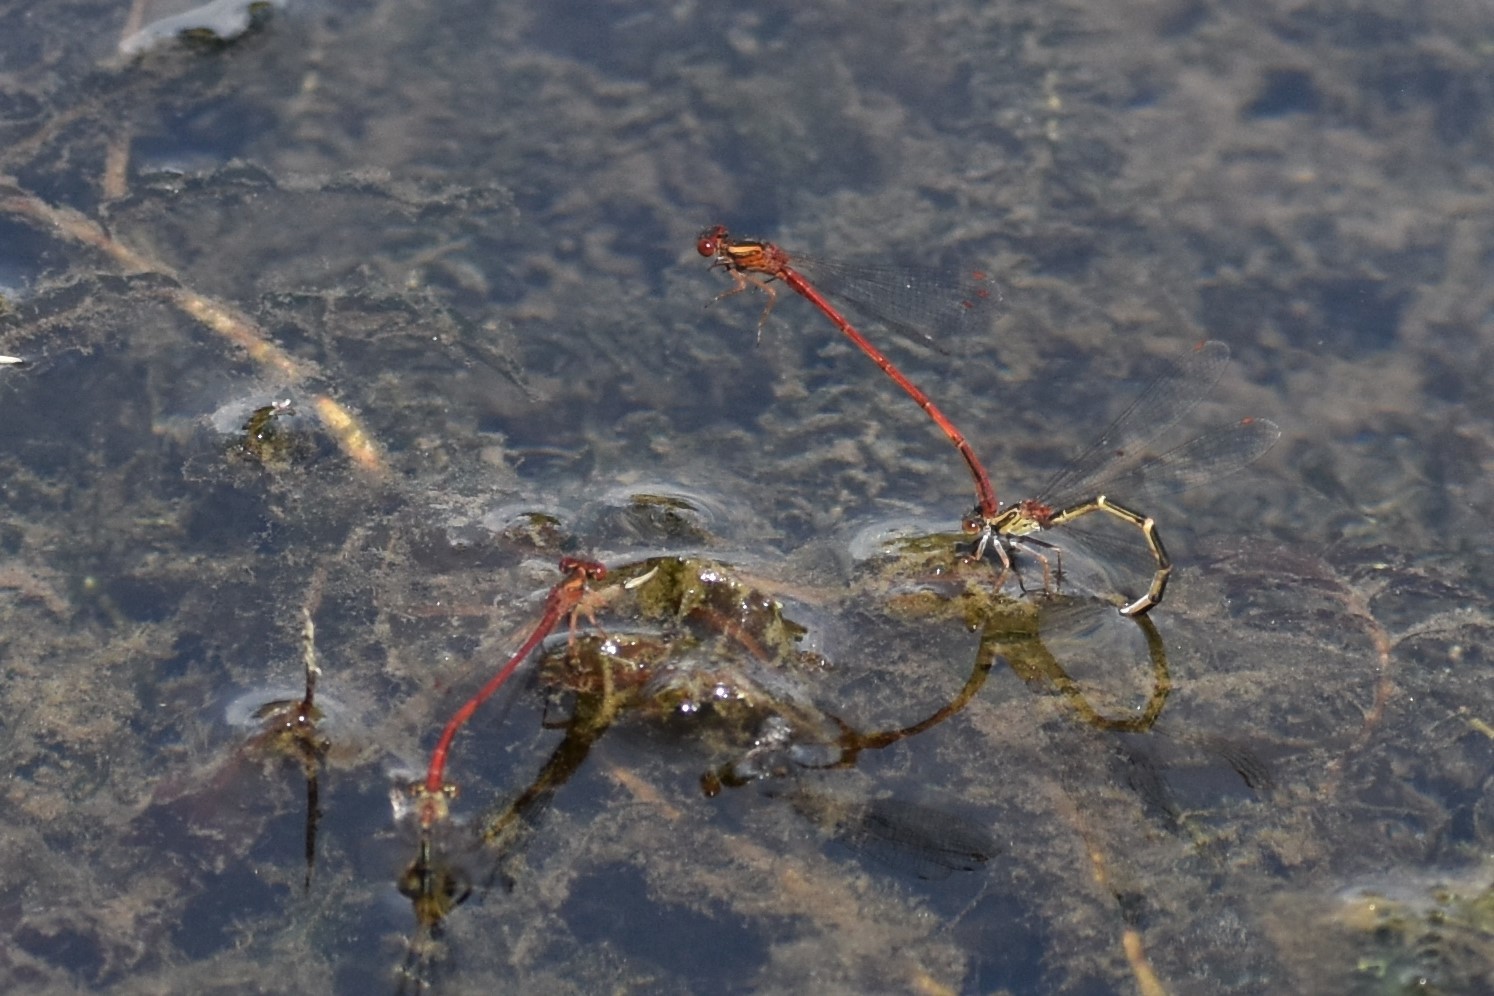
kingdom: Animalia
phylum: Arthropoda
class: Insecta
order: Odonata
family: Coenagrionidae
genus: Xanthocnemis
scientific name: Xanthocnemis zealandica
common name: Common redcoat damselfly
